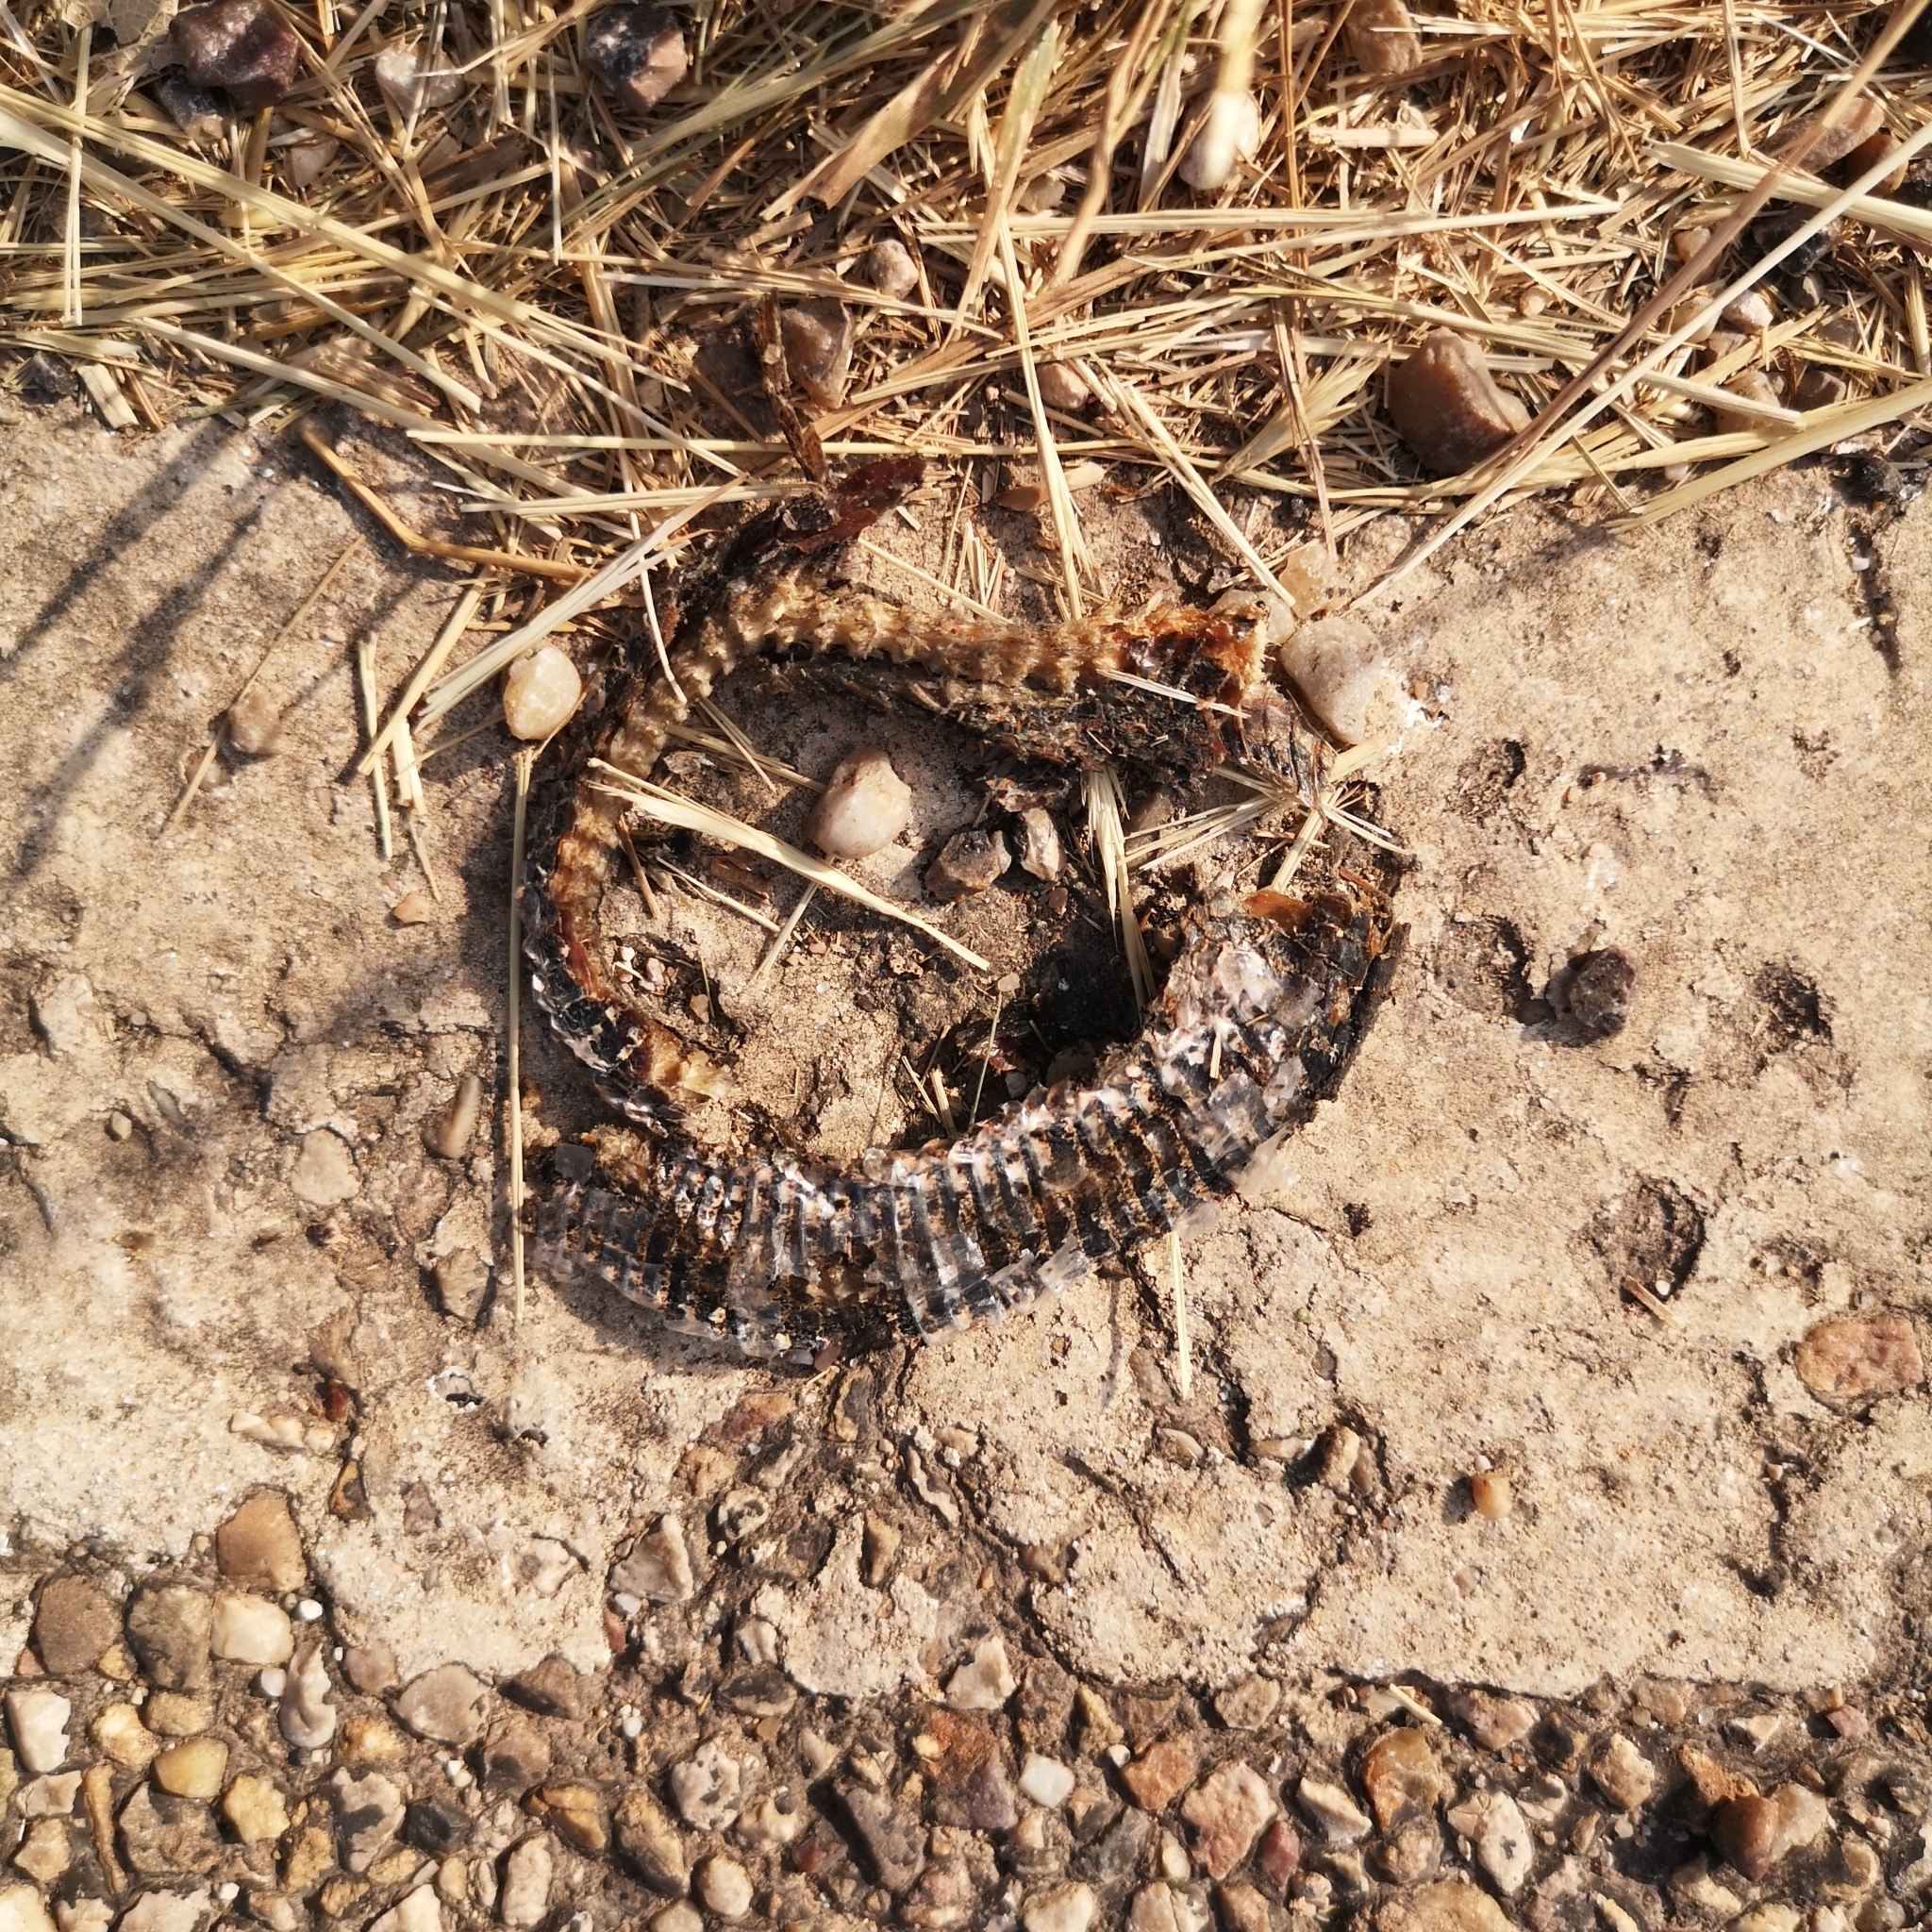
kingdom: Animalia
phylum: Chordata
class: Squamata
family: Viperidae
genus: Vipera
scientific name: Vipera latastei
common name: Lataste's viper
